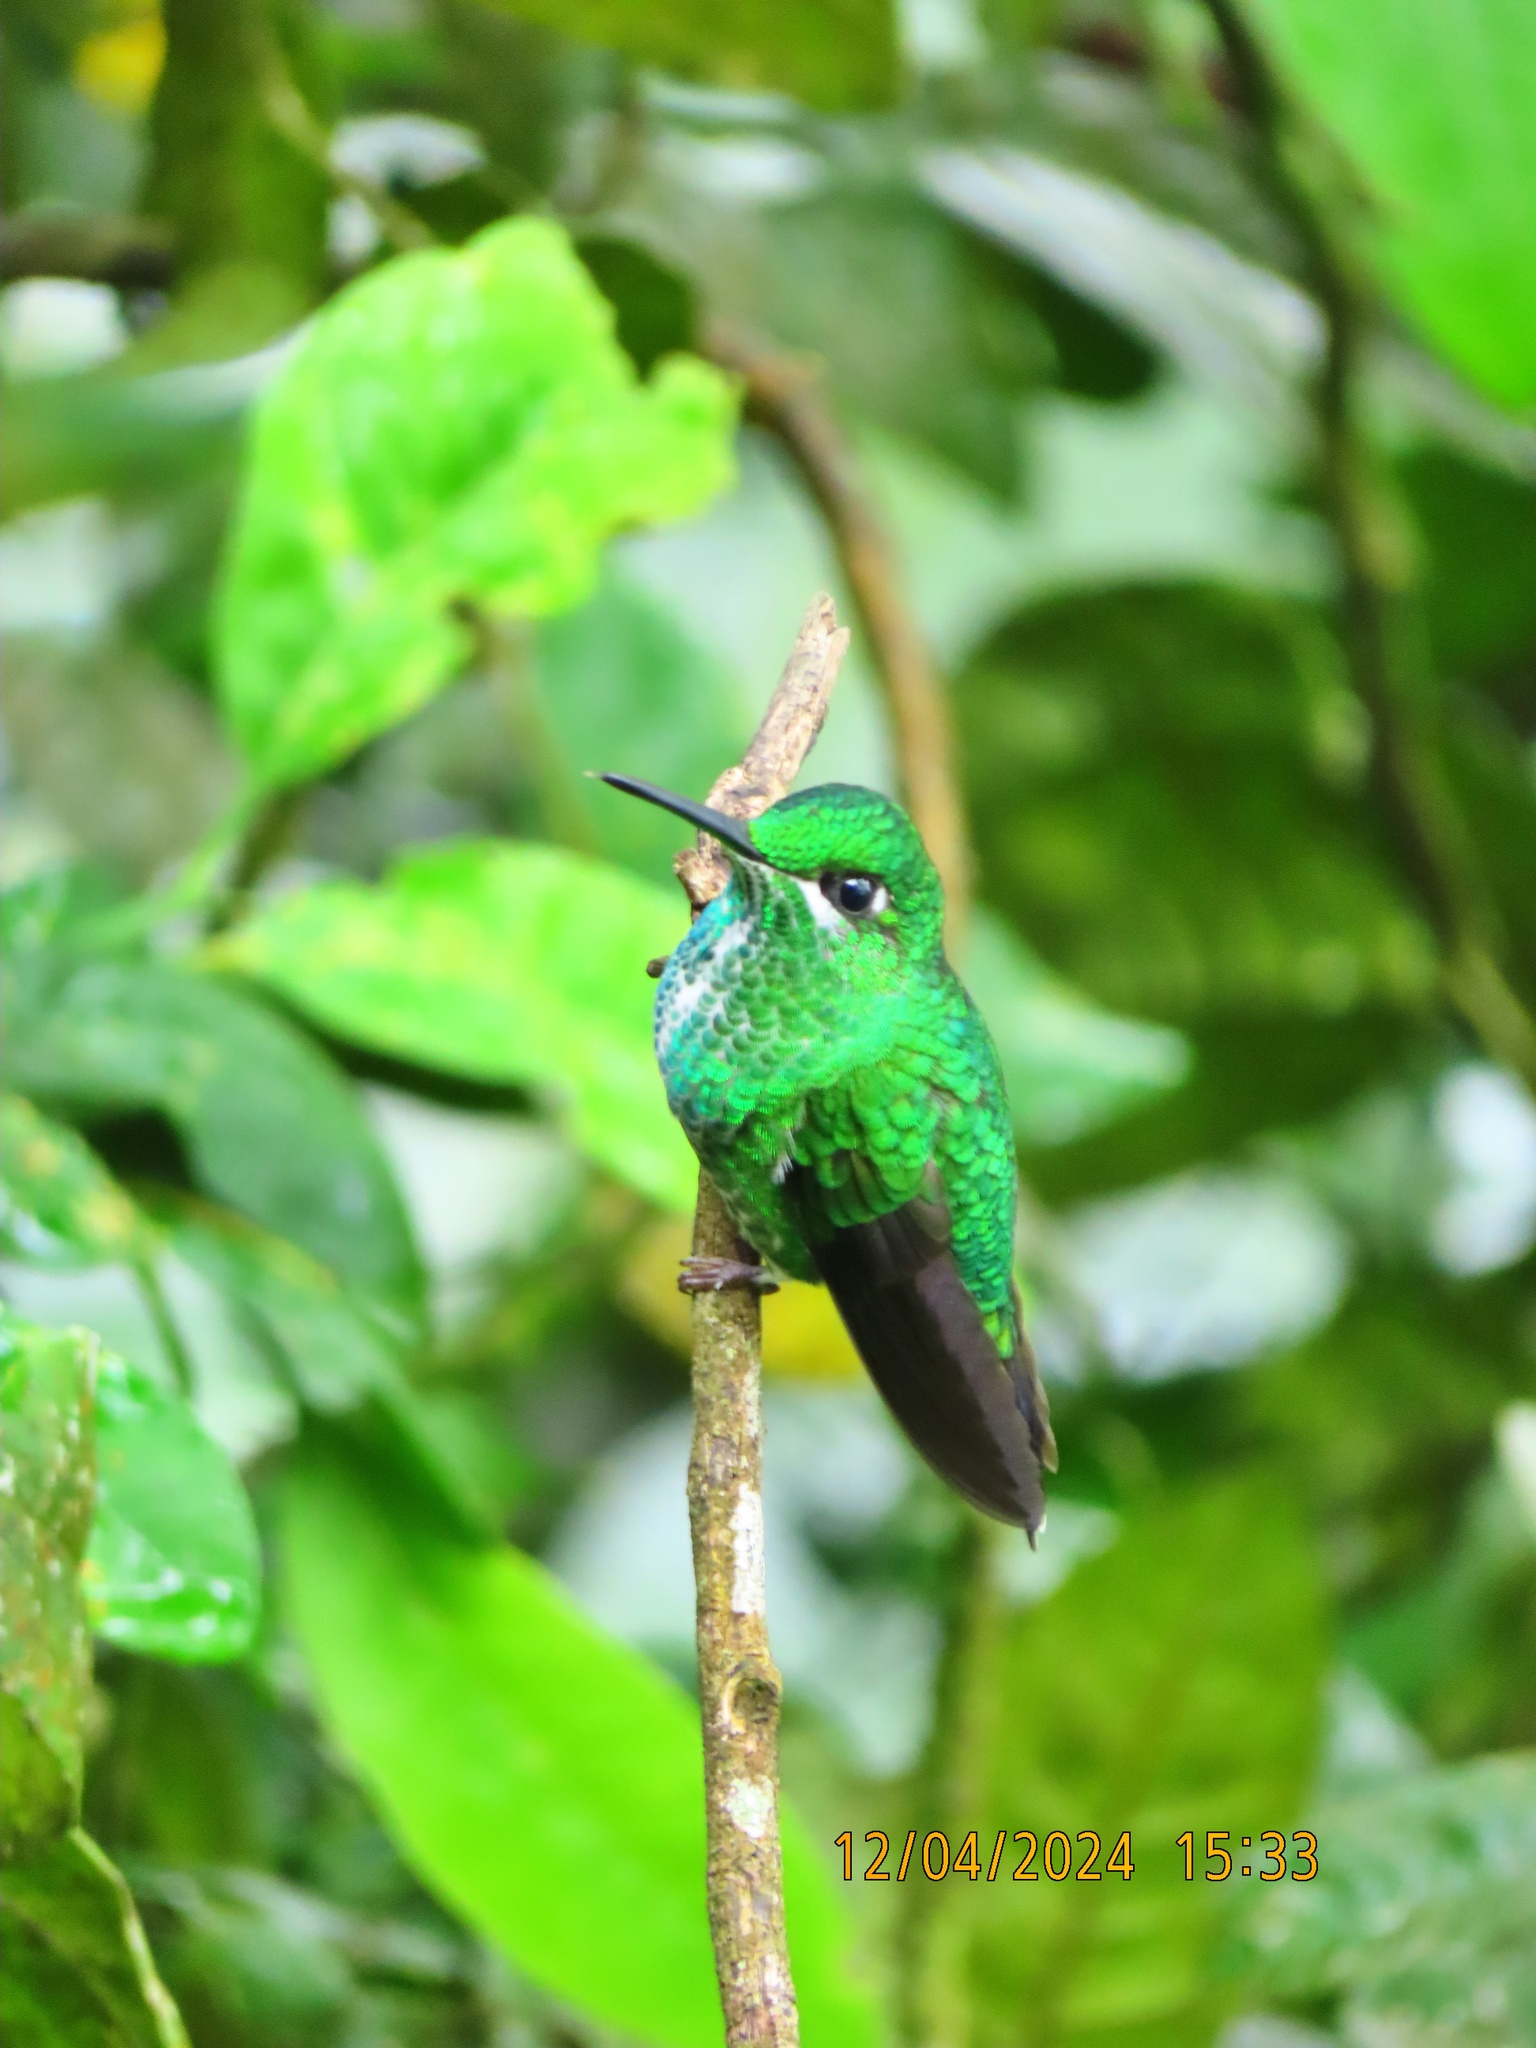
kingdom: Animalia
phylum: Chordata
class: Aves
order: Apodiformes
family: Trochilidae
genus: Heliodoxa
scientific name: Heliodoxa jacula
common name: Green-crowned brilliant
